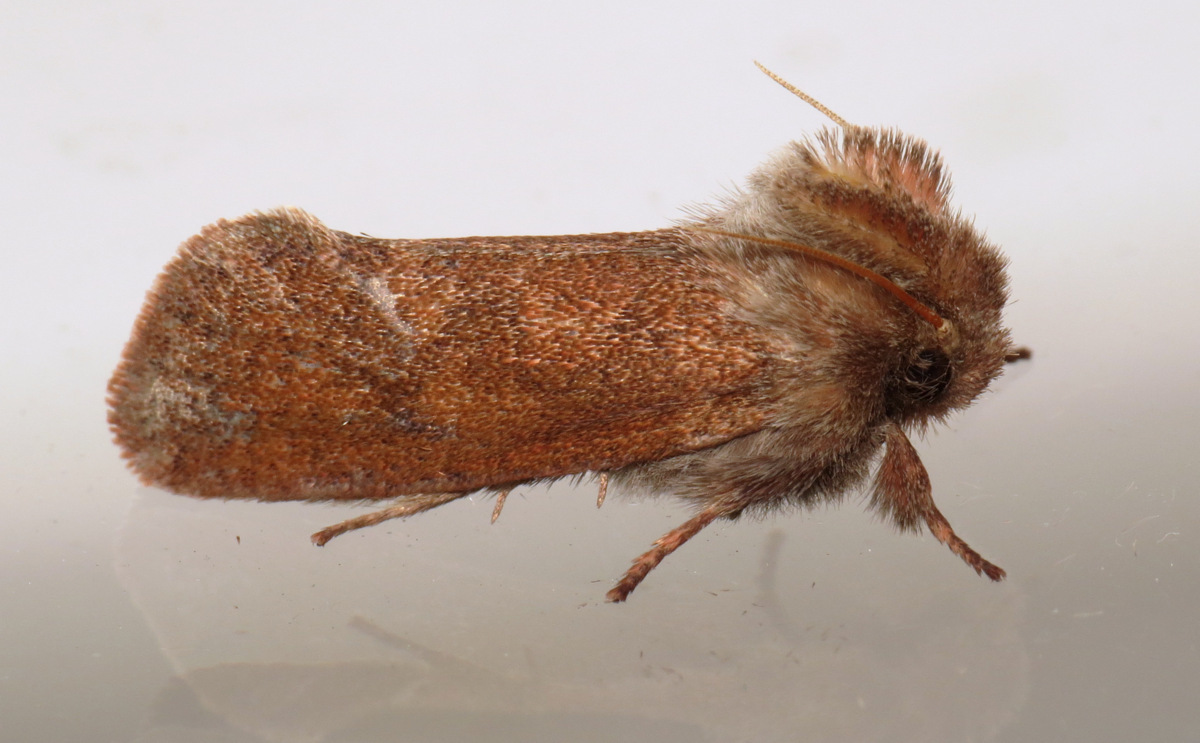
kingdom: Animalia
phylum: Arthropoda
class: Insecta
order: Lepidoptera
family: Tineidae
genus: Acrolophus
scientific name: Acrolophus plumifrontella
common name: Eastern grass tubeworm moth
